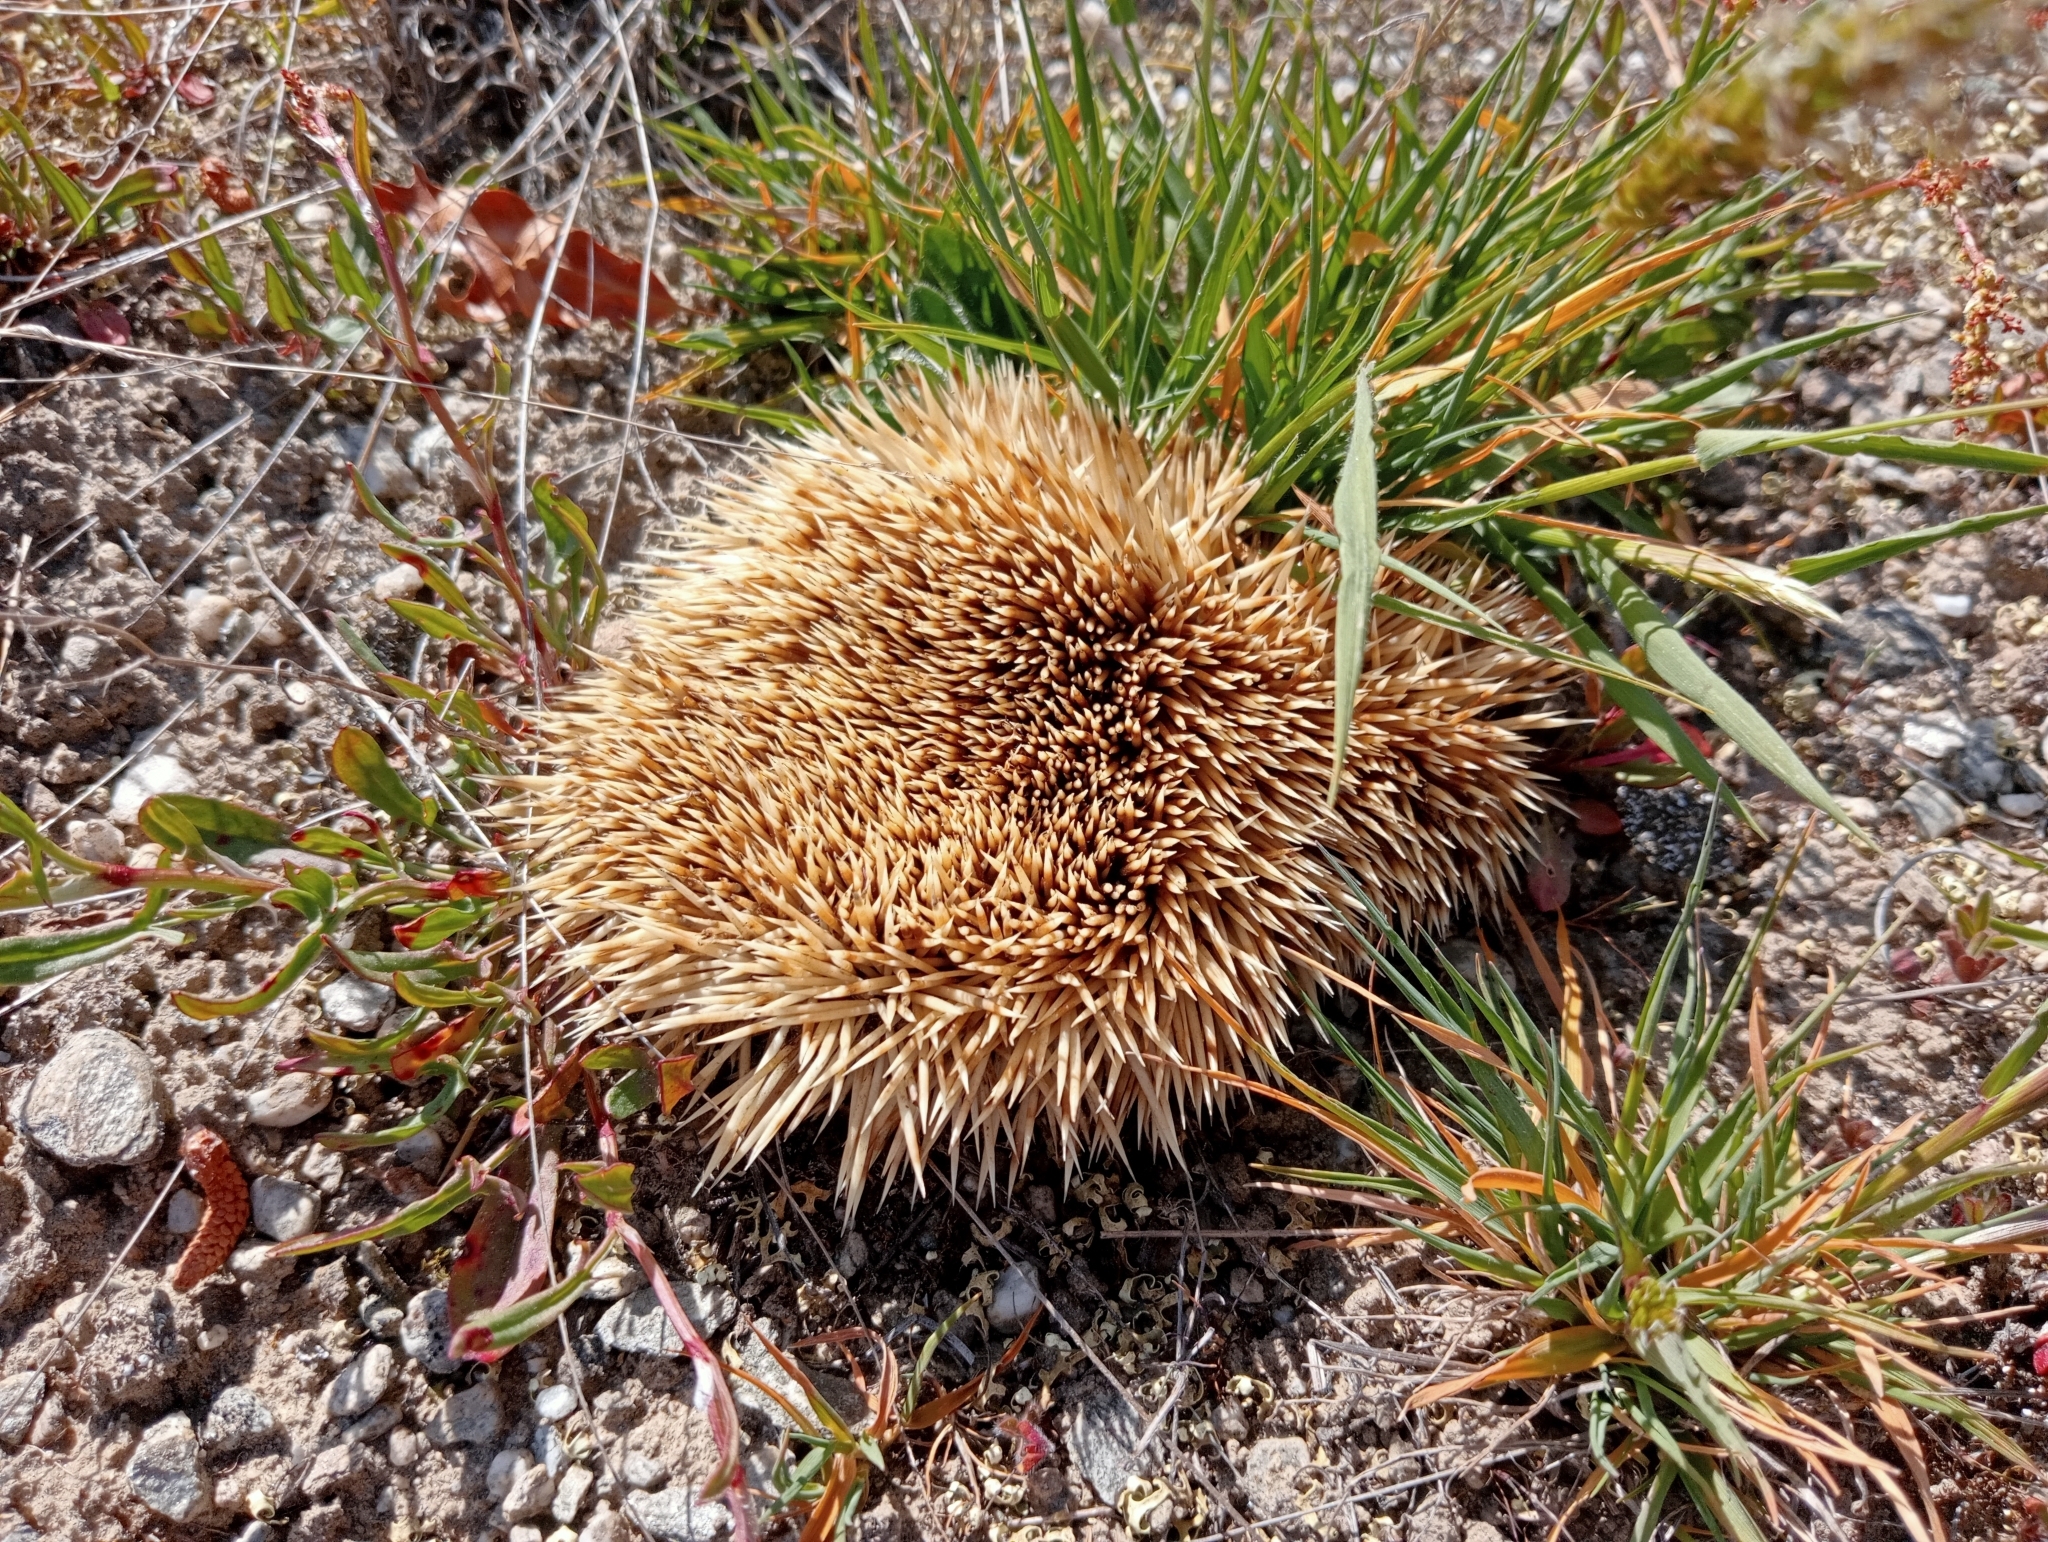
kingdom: Animalia
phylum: Chordata
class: Mammalia
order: Erinaceomorpha
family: Erinaceidae
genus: Erinaceus
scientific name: Erinaceus europaeus
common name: West european hedgehog
